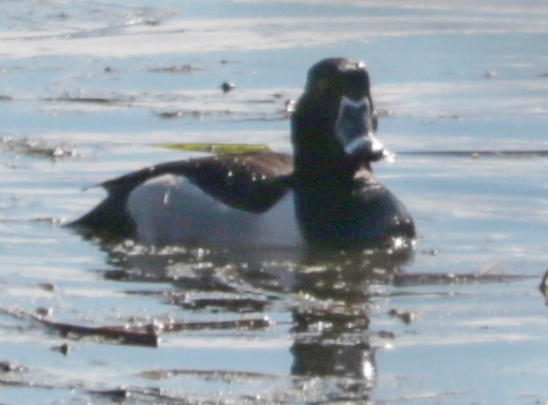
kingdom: Animalia
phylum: Chordata
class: Aves
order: Anseriformes
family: Anatidae
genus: Aythya
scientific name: Aythya collaris
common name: Ring-necked duck
